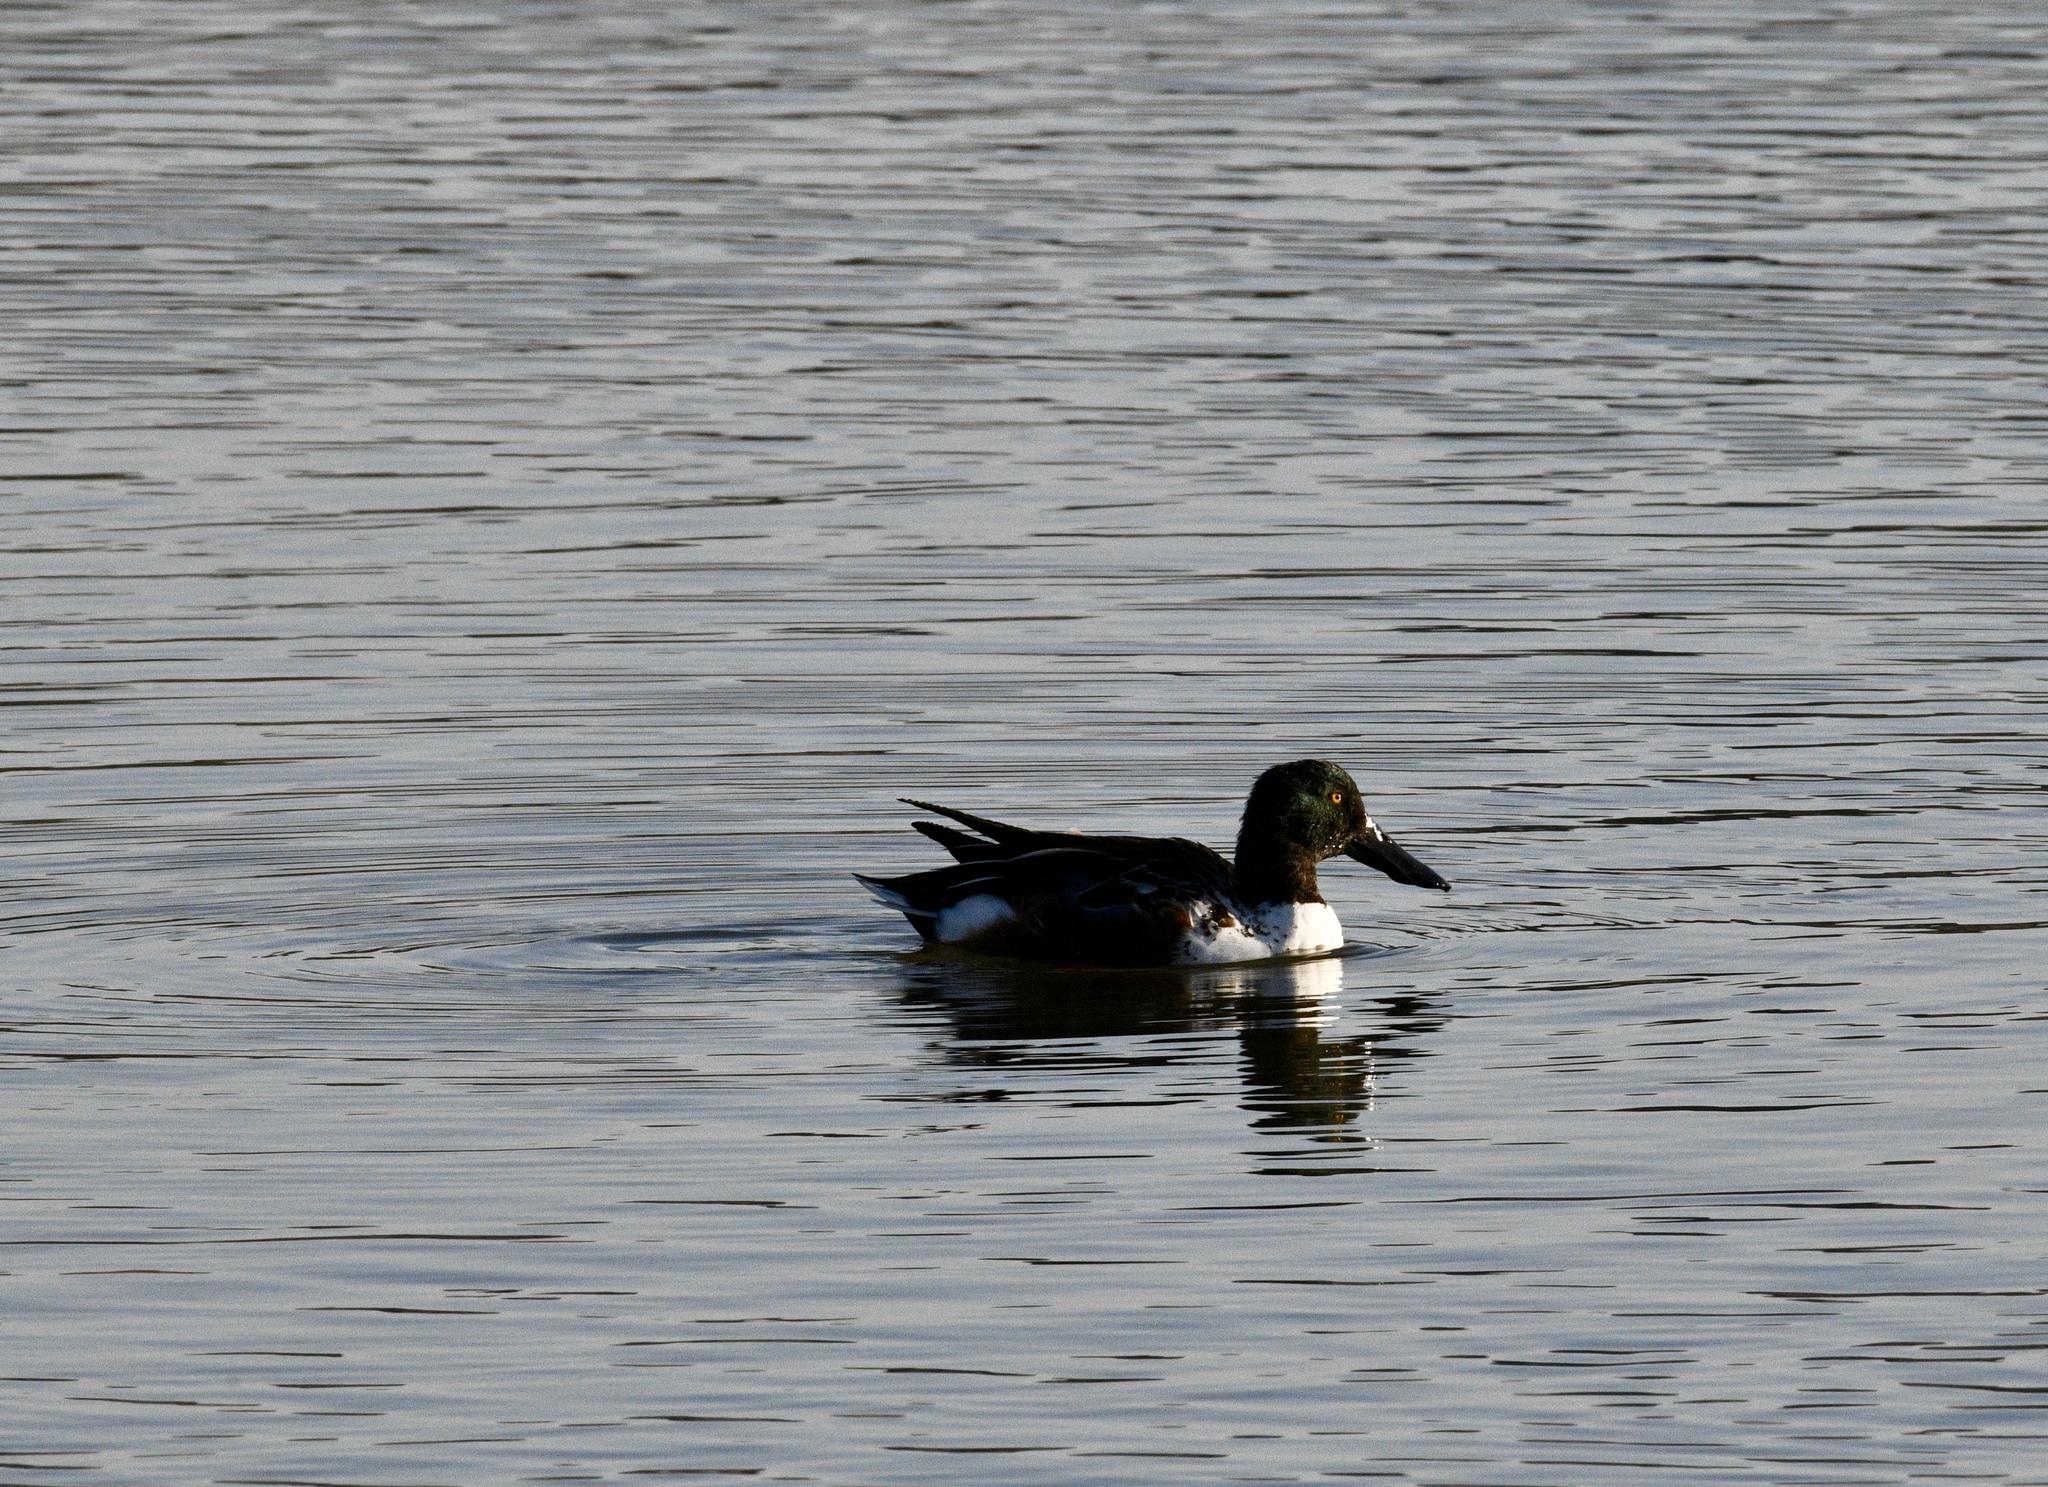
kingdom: Animalia
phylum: Chordata
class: Aves
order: Anseriformes
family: Anatidae
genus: Spatula
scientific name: Spatula clypeata
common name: Northern shoveler
